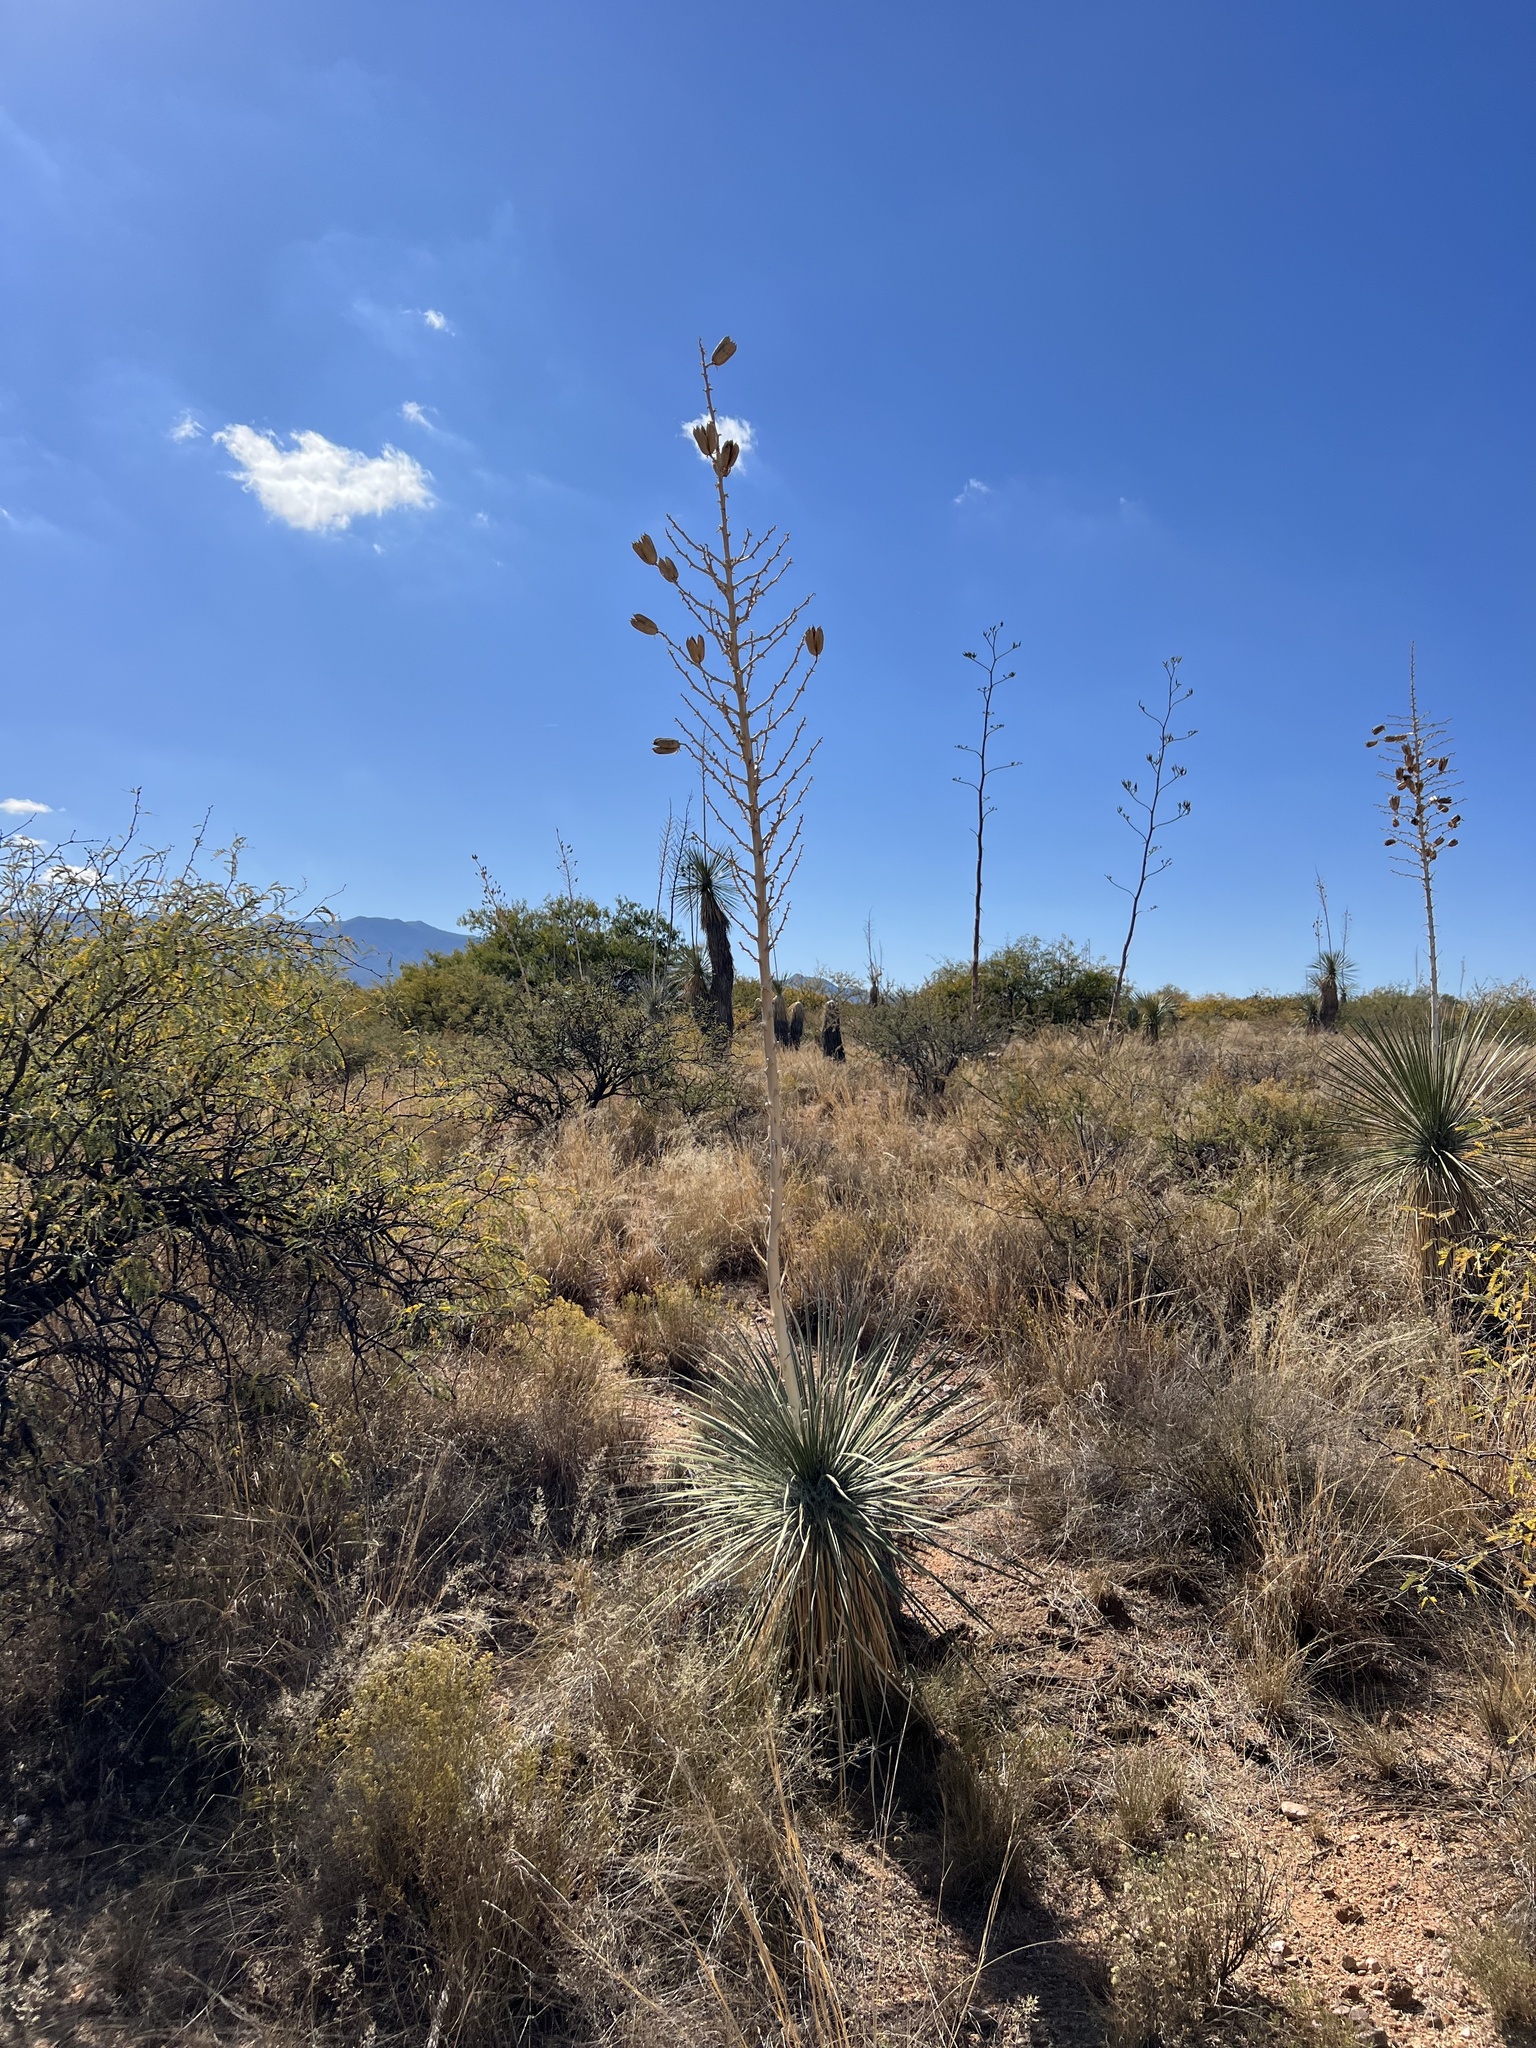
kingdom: Plantae
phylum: Tracheophyta
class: Liliopsida
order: Asparagales
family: Asparagaceae
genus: Yucca
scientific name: Yucca elata
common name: Palmella
